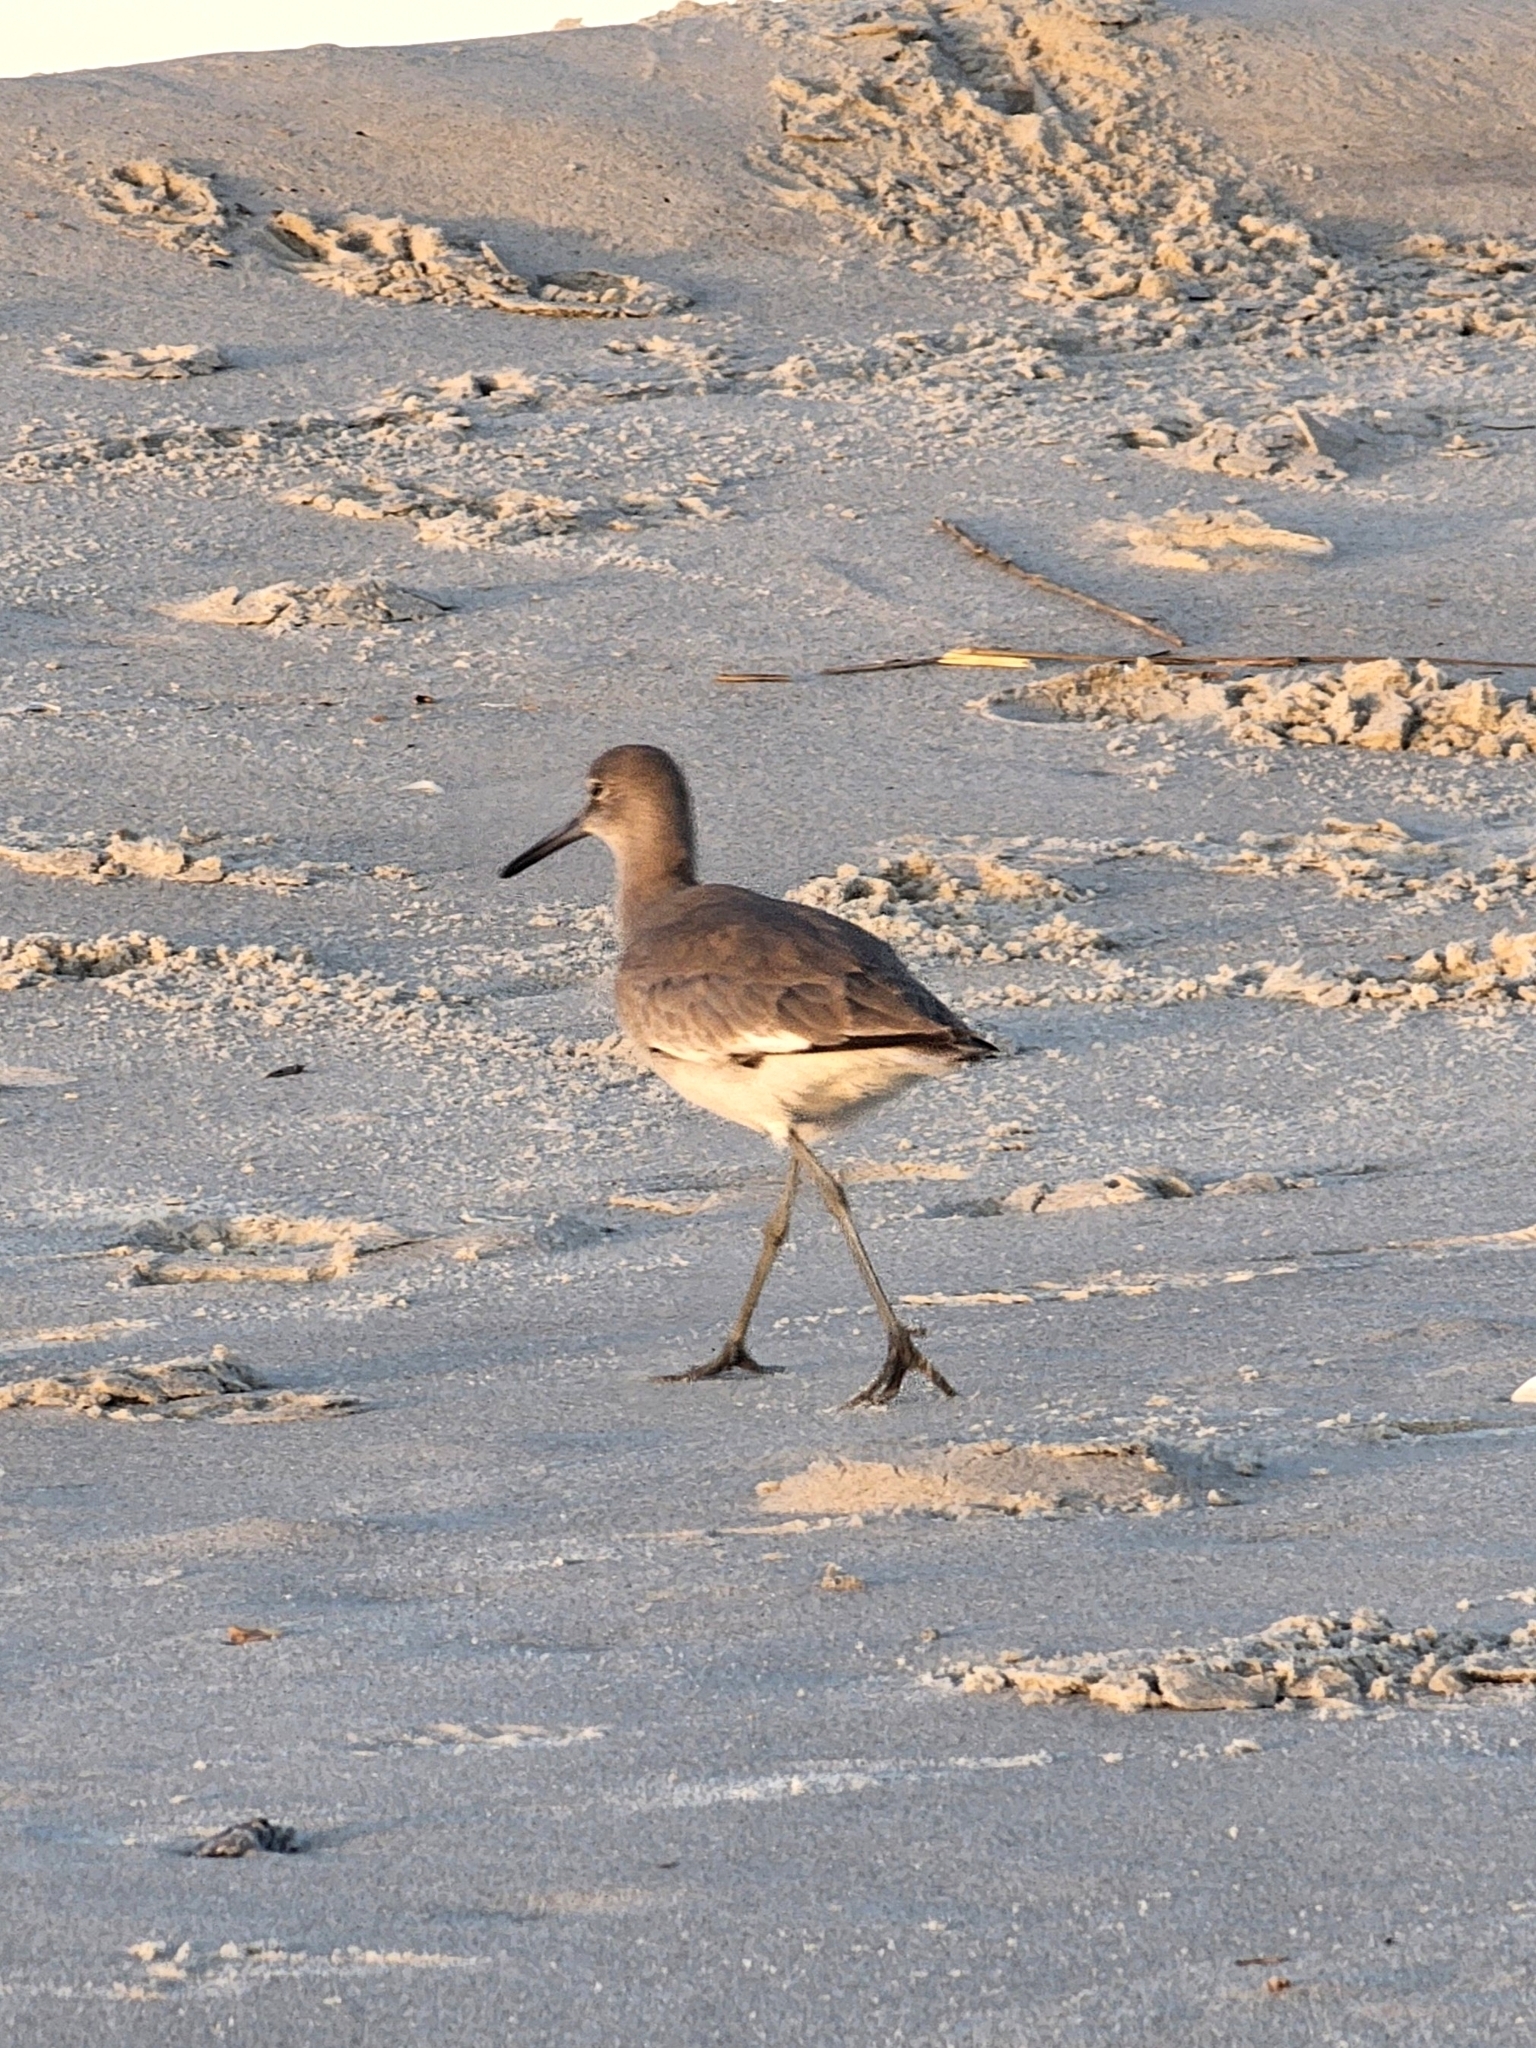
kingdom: Animalia
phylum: Chordata
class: Aves
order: Charadriiformes
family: Scolopacidae
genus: Tringa
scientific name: Tringa semipalmata
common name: Willet
